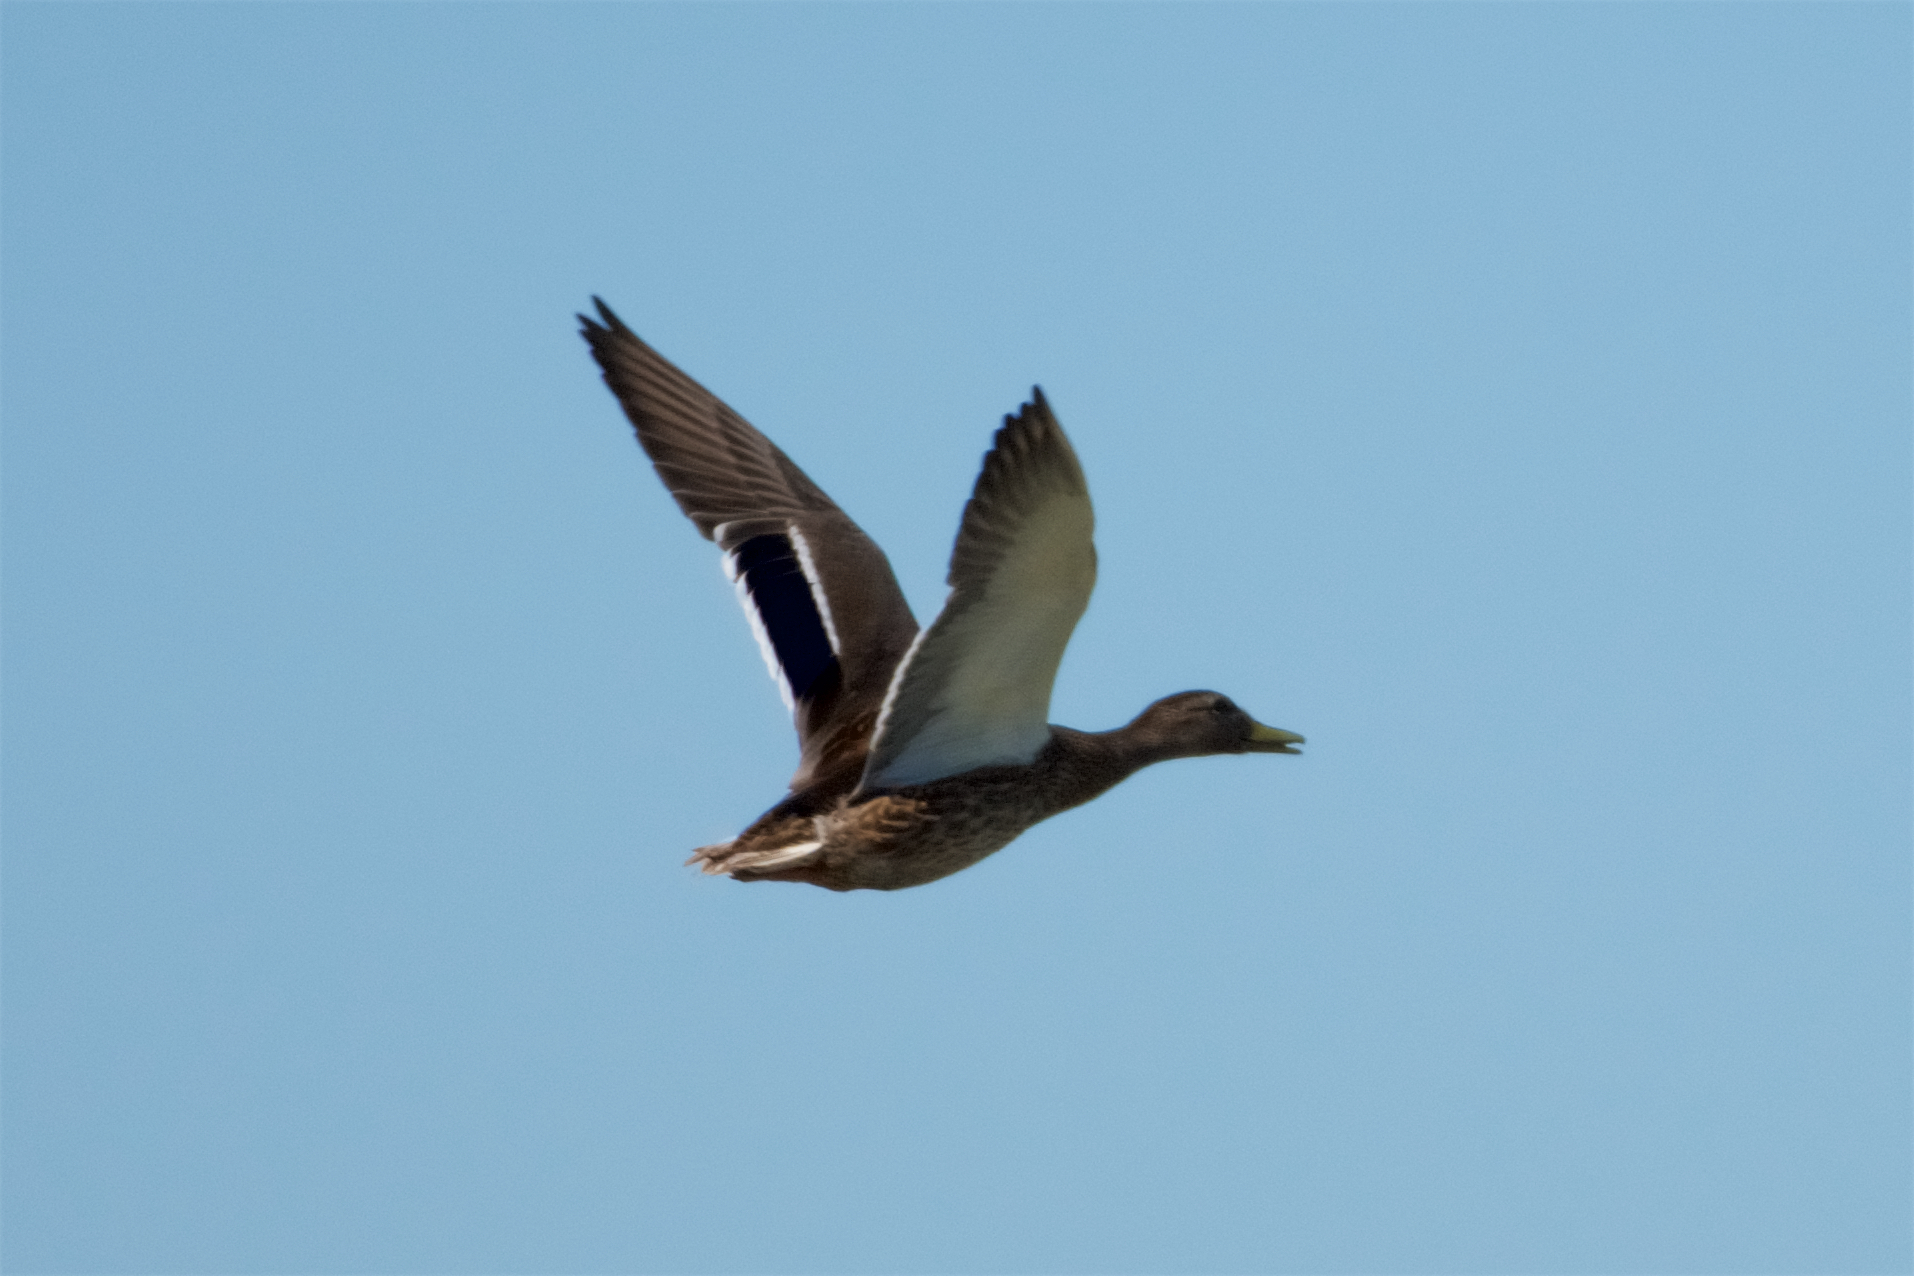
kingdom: Animalia
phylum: Chordata
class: Aves
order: Anseriformes
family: Anatidae
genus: Anas
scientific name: Anas platyrhynchos
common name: Mallard
